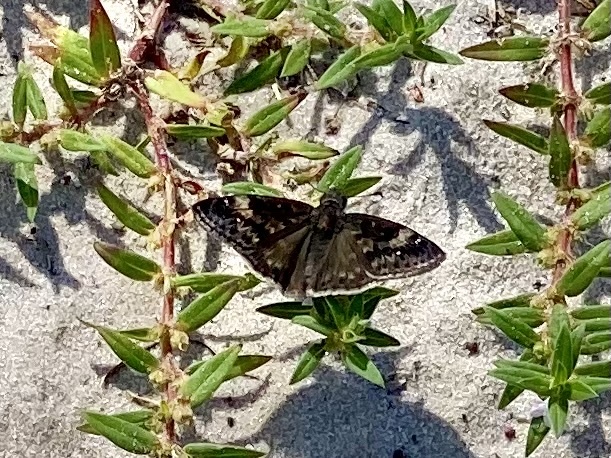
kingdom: Animalia
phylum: Arthropoda
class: Insecta
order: Lepidoptera
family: Hesperiidae
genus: Erynnis
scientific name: Erynnis zarucco
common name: Zarucco duskywing
